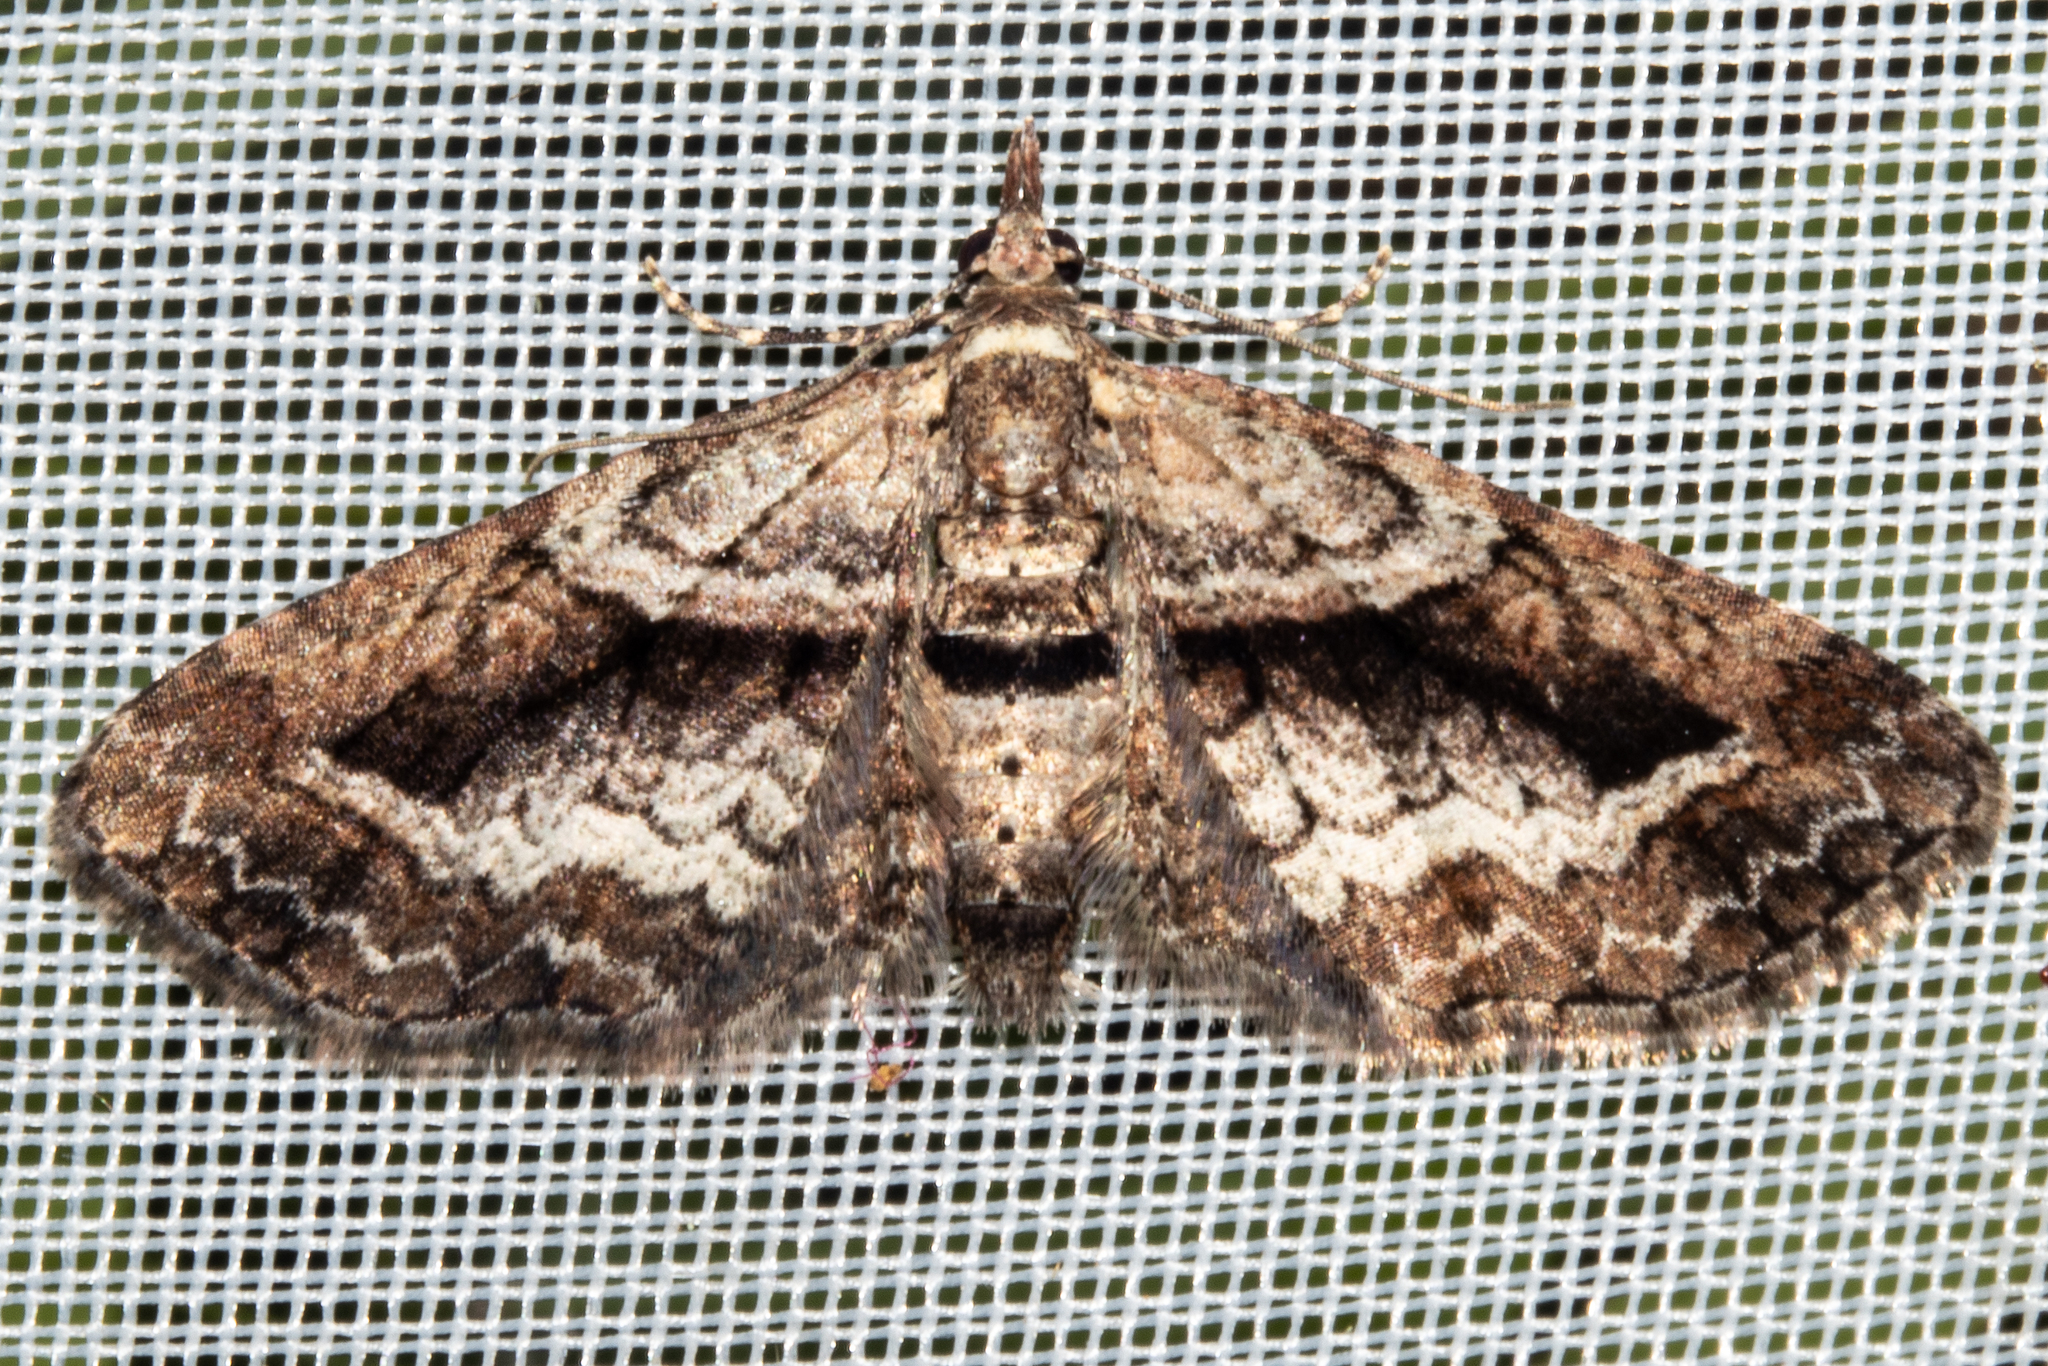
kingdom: Animalia
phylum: Arthropoda
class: Insecta
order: Lepidoptera
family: Geometridae
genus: Pasiphila
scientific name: Pasiphila suffusa
